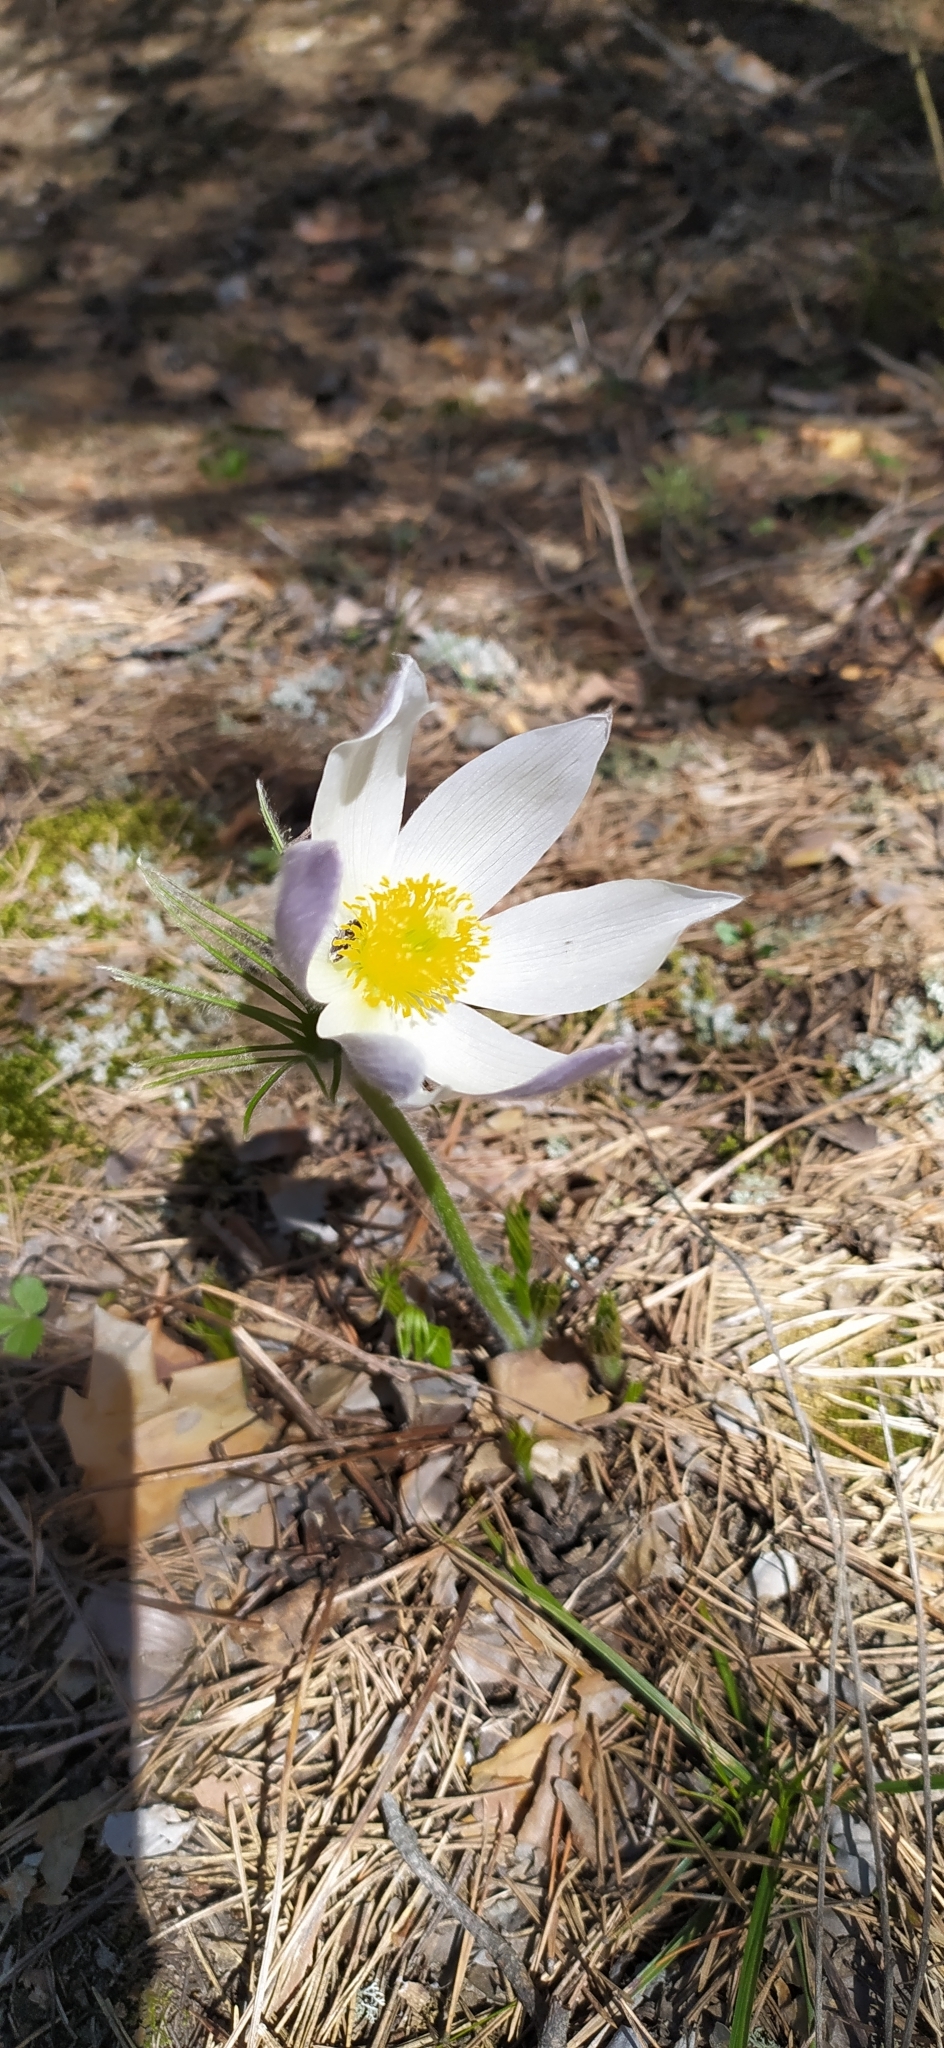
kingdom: Plantae
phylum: Tracheophyta
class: Magnoliopsida
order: Ranunculales
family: Ranunculaceae
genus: Pulsatilla
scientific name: Pulsatilla patens
